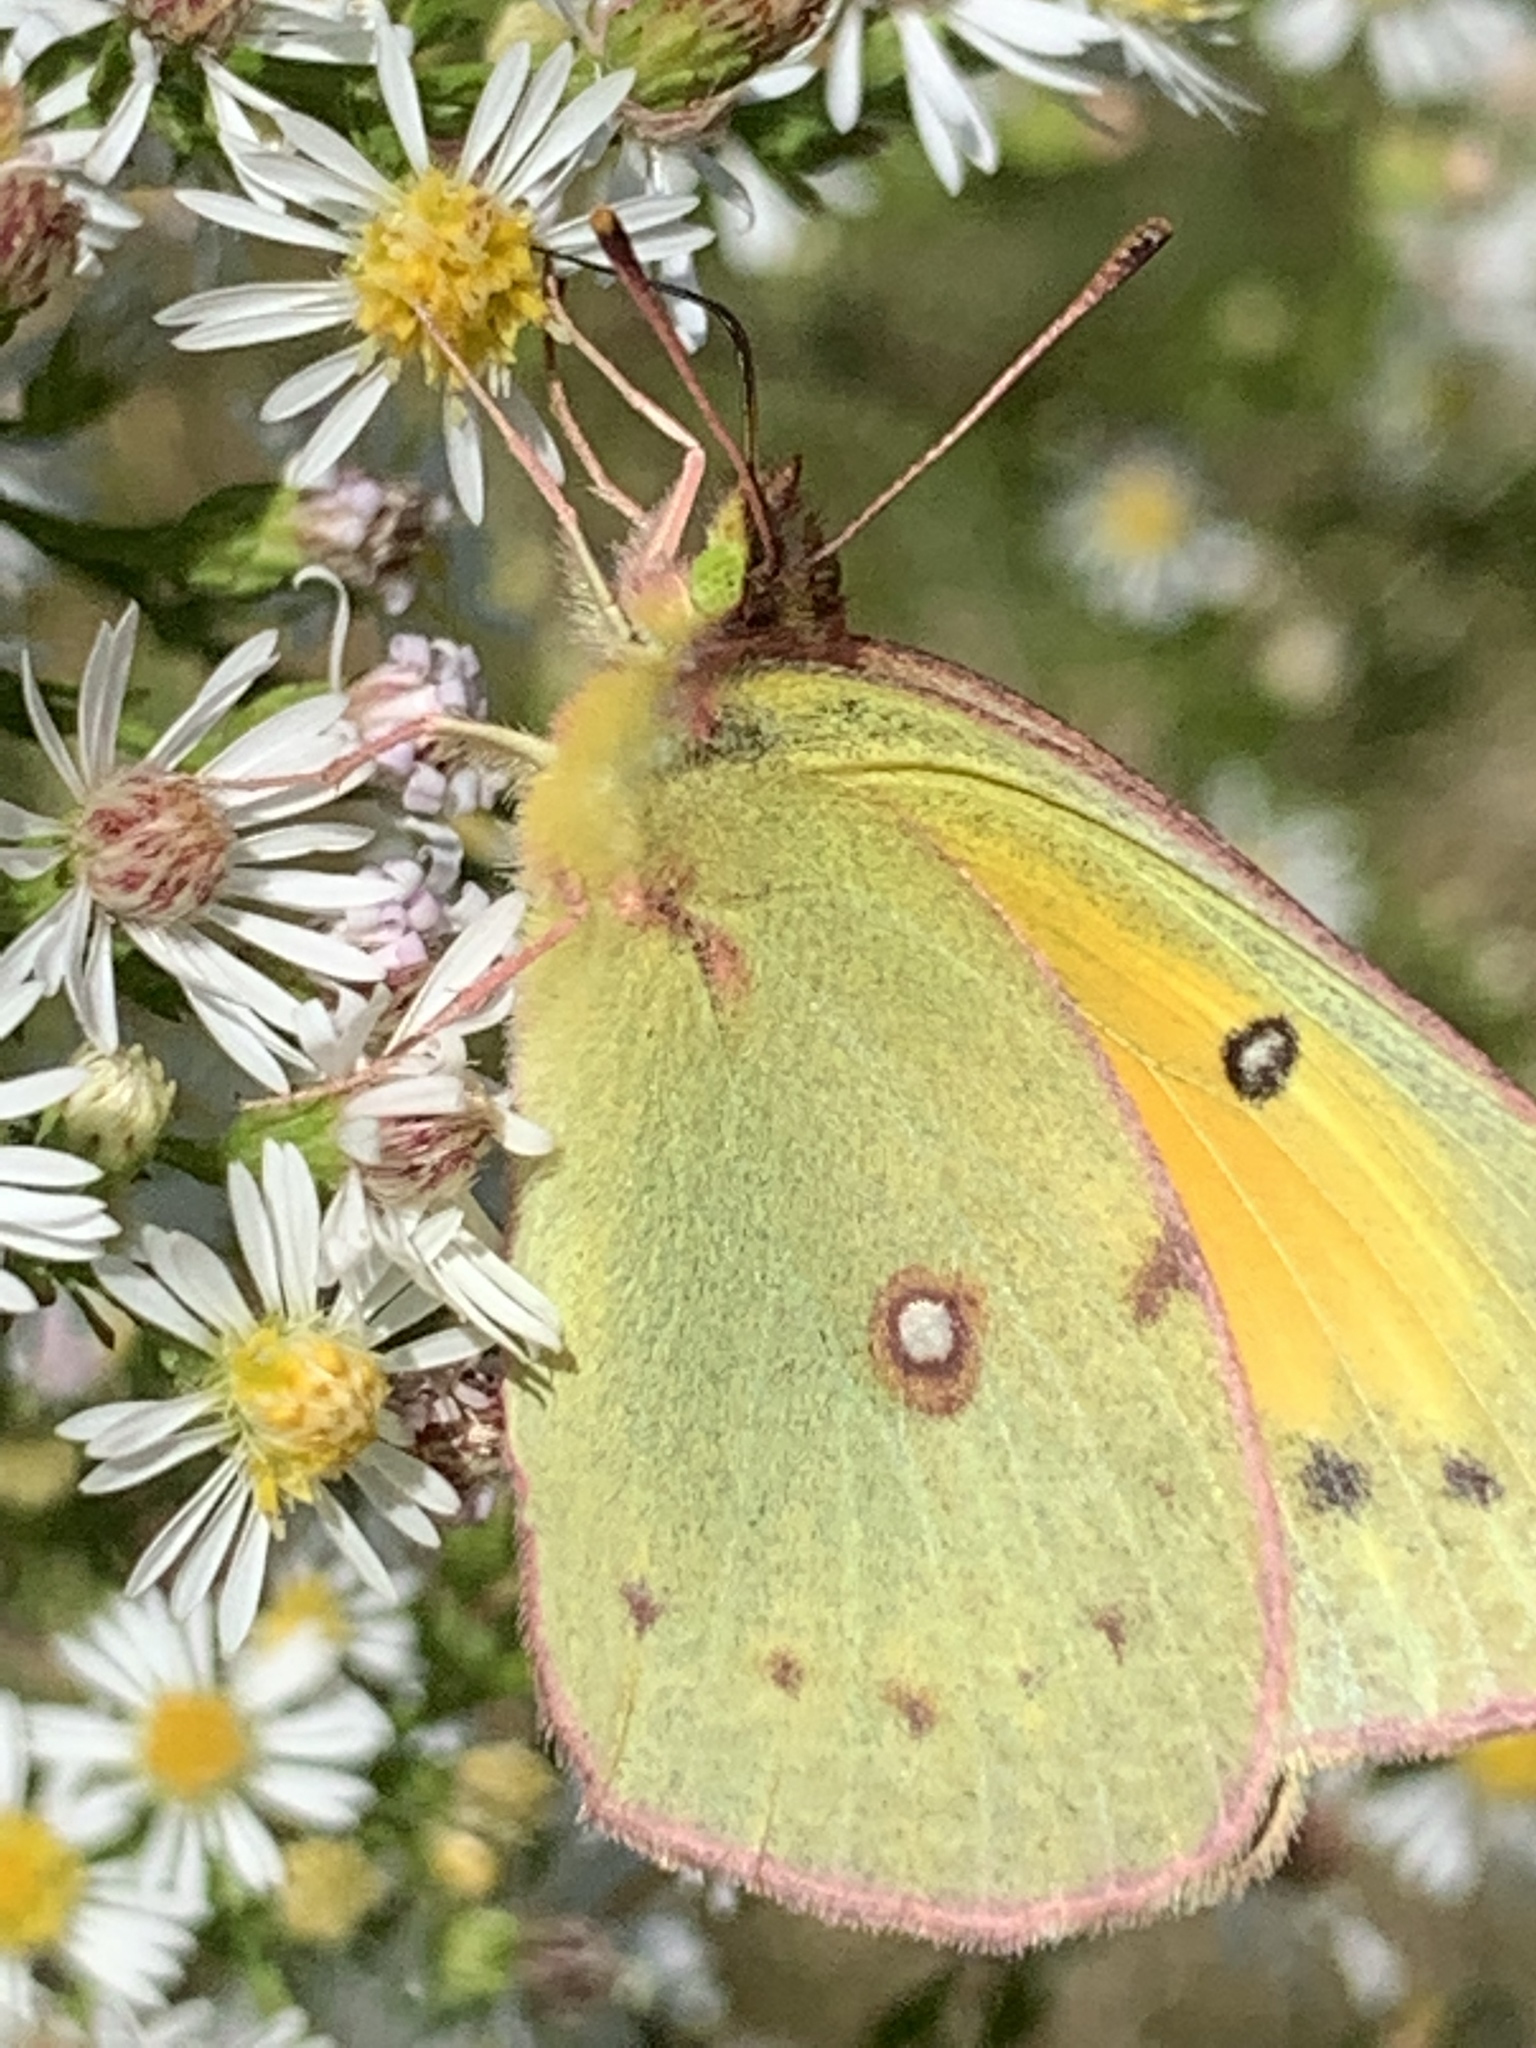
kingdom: Animalia
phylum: Arthropoda
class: Insecta
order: Lepidoptera
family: Pieridae
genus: Colias
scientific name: Colias eurytheme
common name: Alfalfa butterfly
